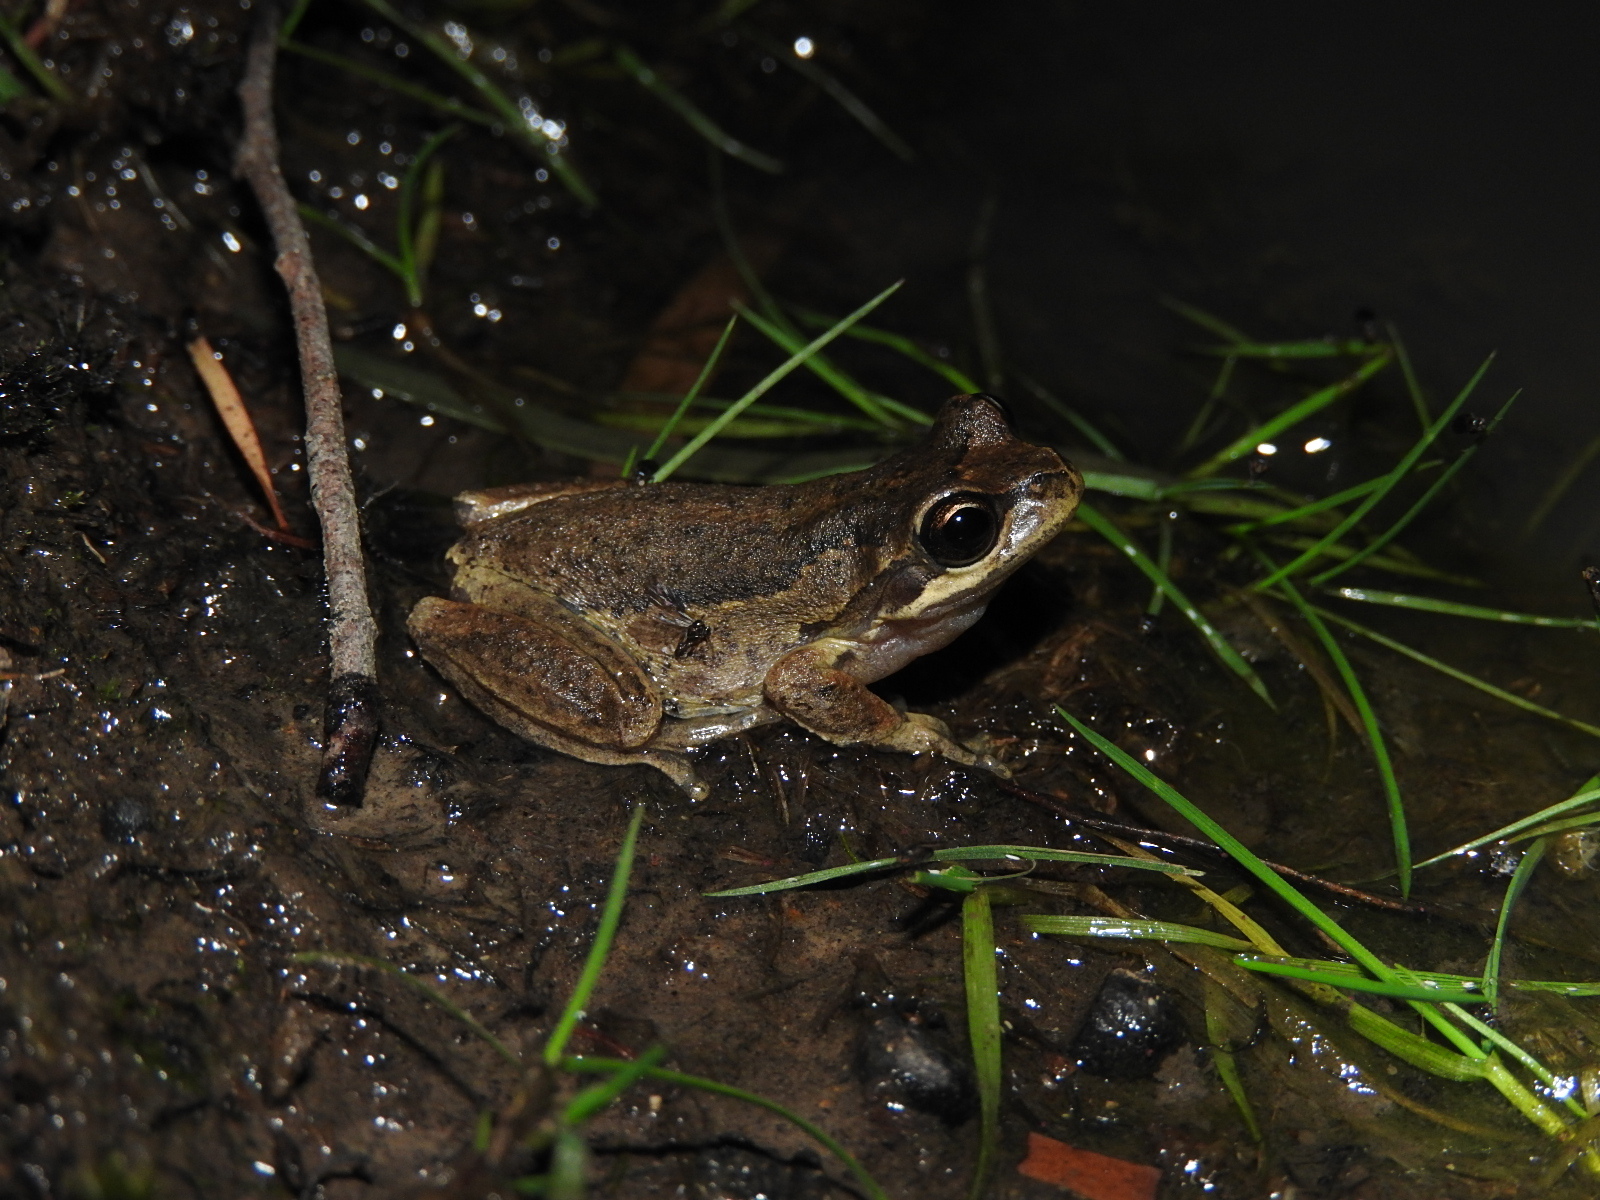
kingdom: Animalia
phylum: Chordata
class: Amphibia
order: Anura
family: Pelodryadidae
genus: Litoria
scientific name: Litoria ewingii
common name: Southern brown tree frog
